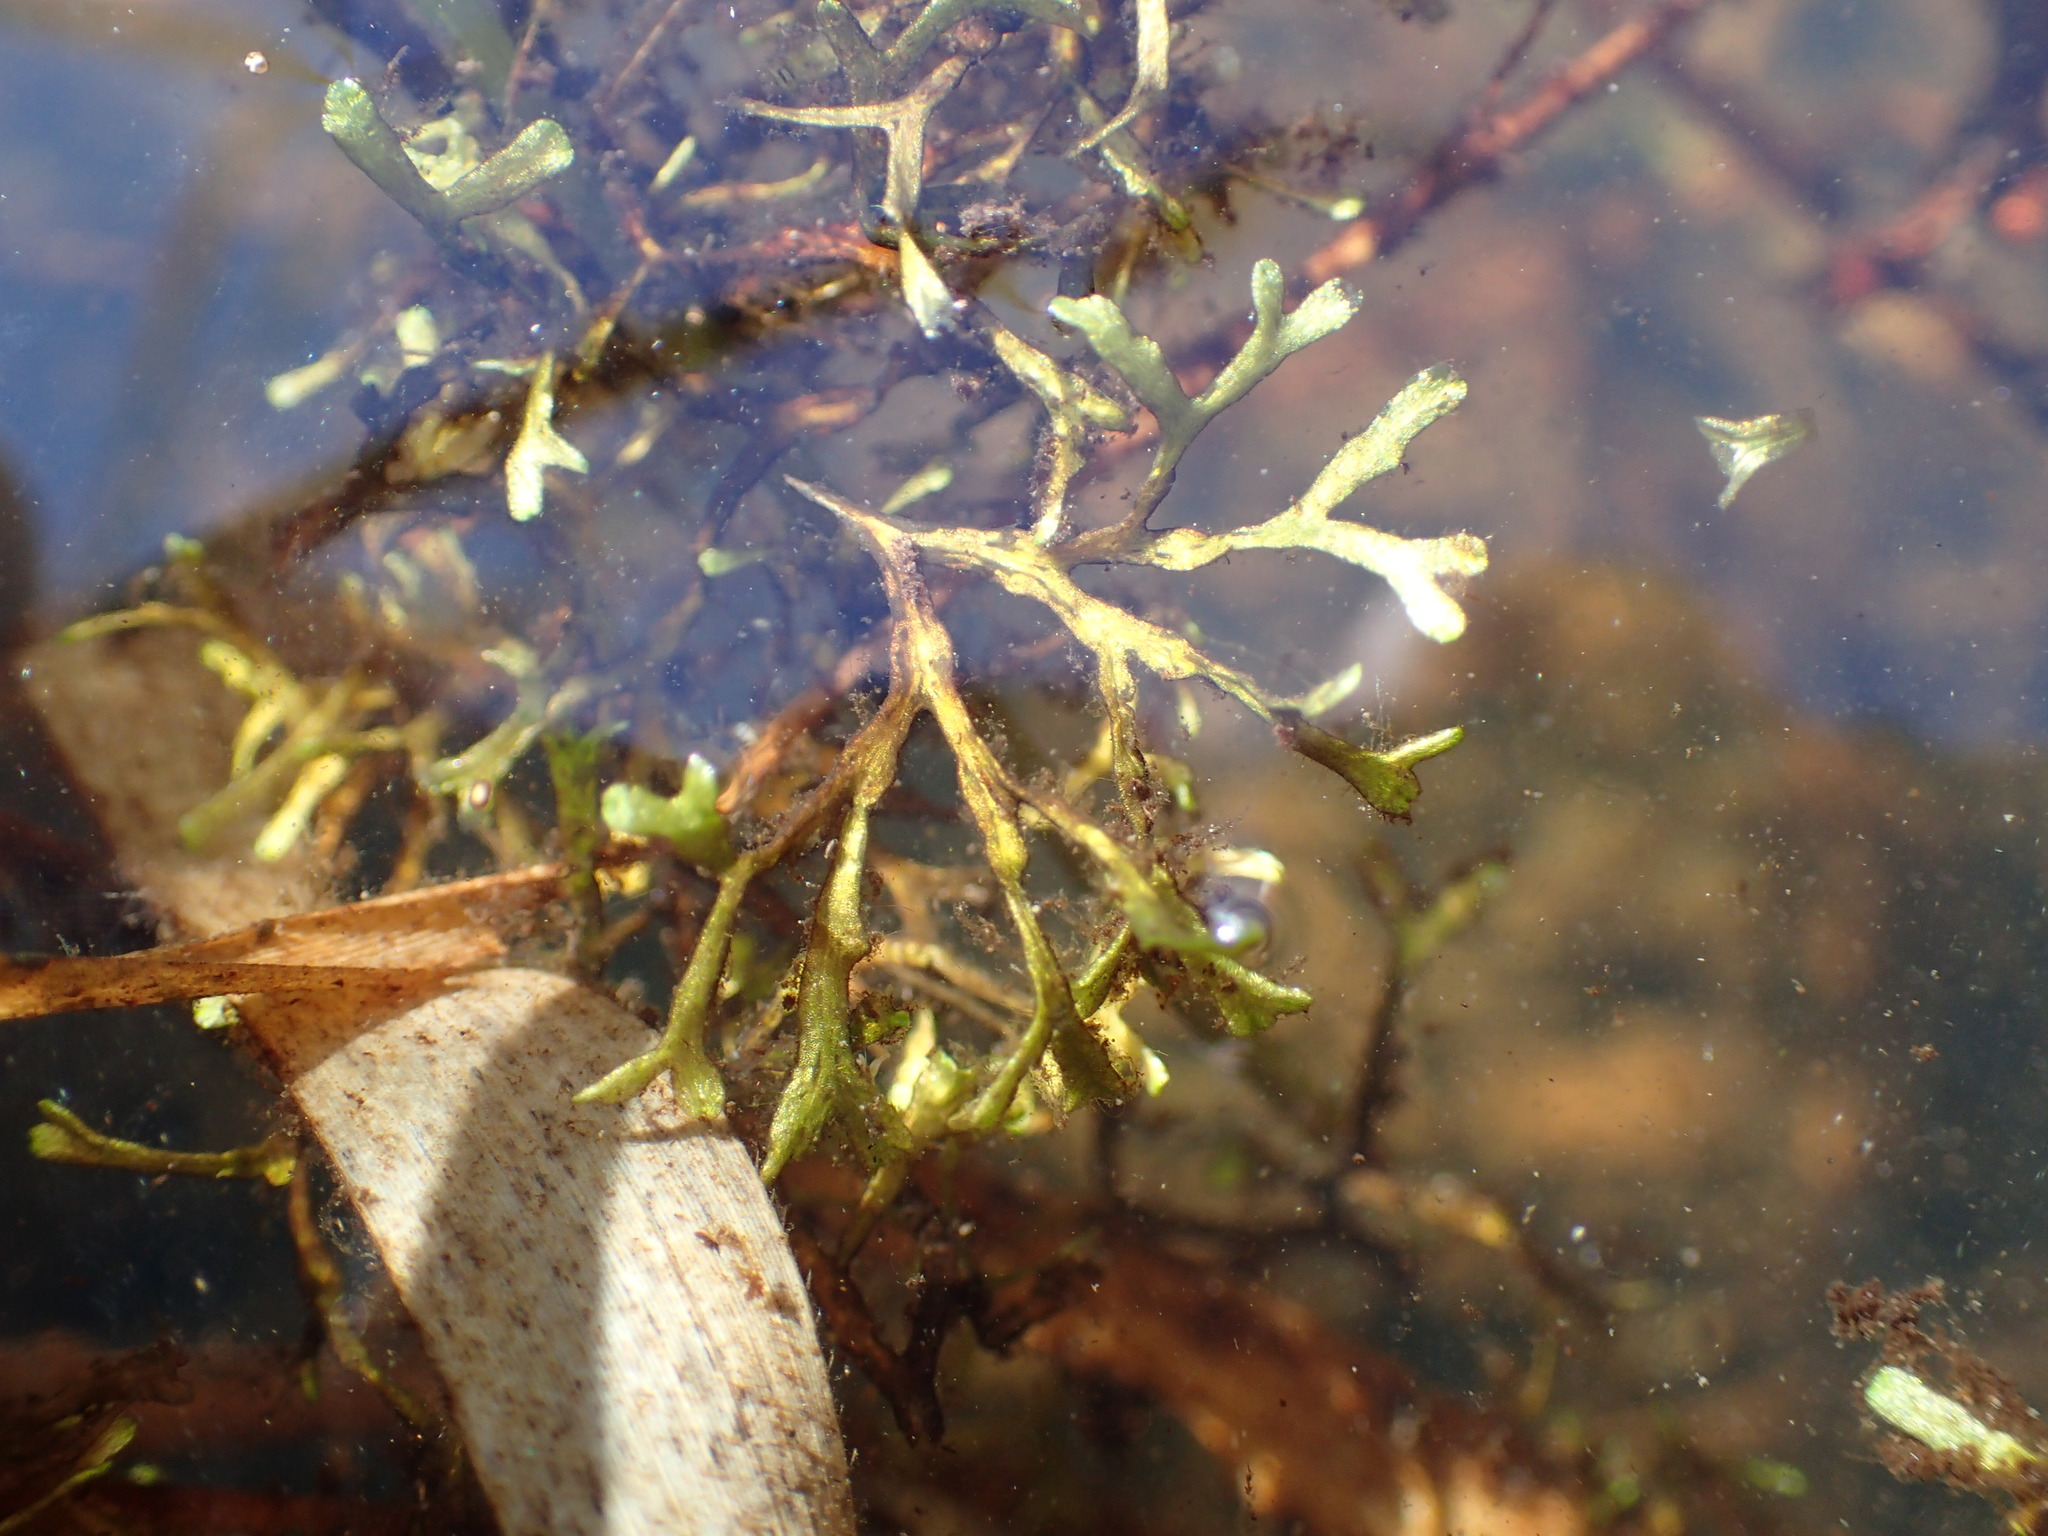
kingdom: Plantae
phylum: Marchantiophyta
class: Marchantiopsida
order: Marchantiales
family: Ricciaceae
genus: Riccia
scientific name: Riccia fluitans
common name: Floating crystalwort
